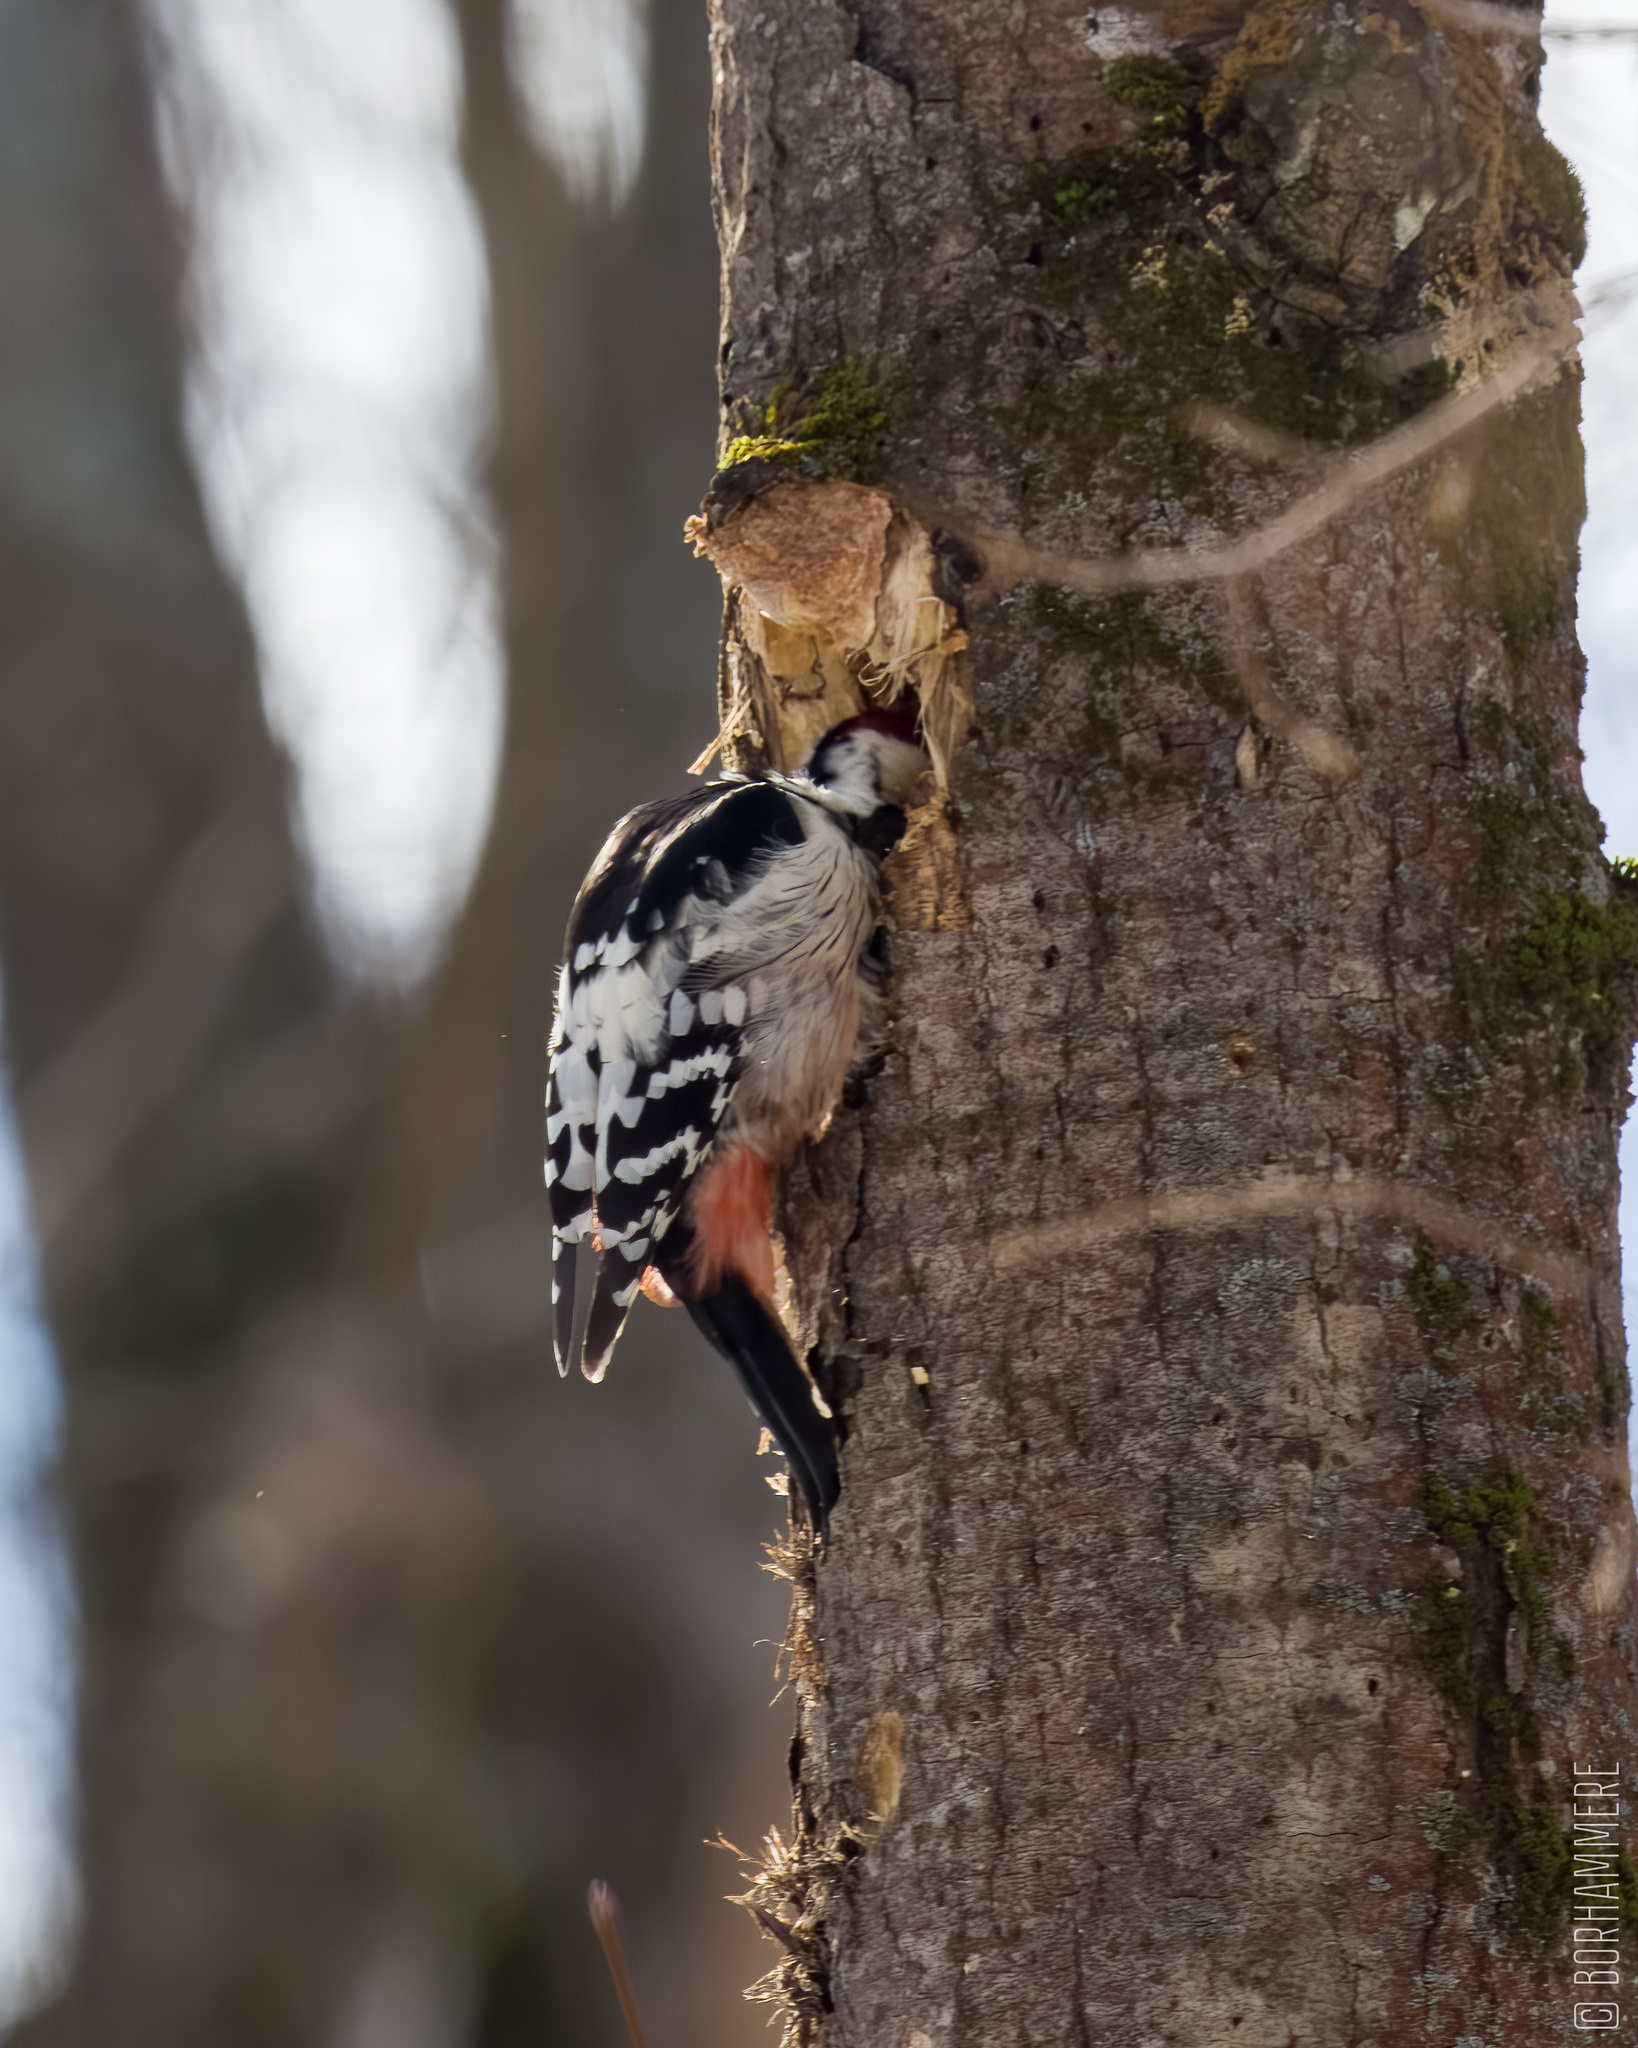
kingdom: Animalia
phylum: Chordata
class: Aves
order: Piciformes
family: Picidae
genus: Dendrocopos
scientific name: Dendrocopos leucotos
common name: White-backed woodpecker
